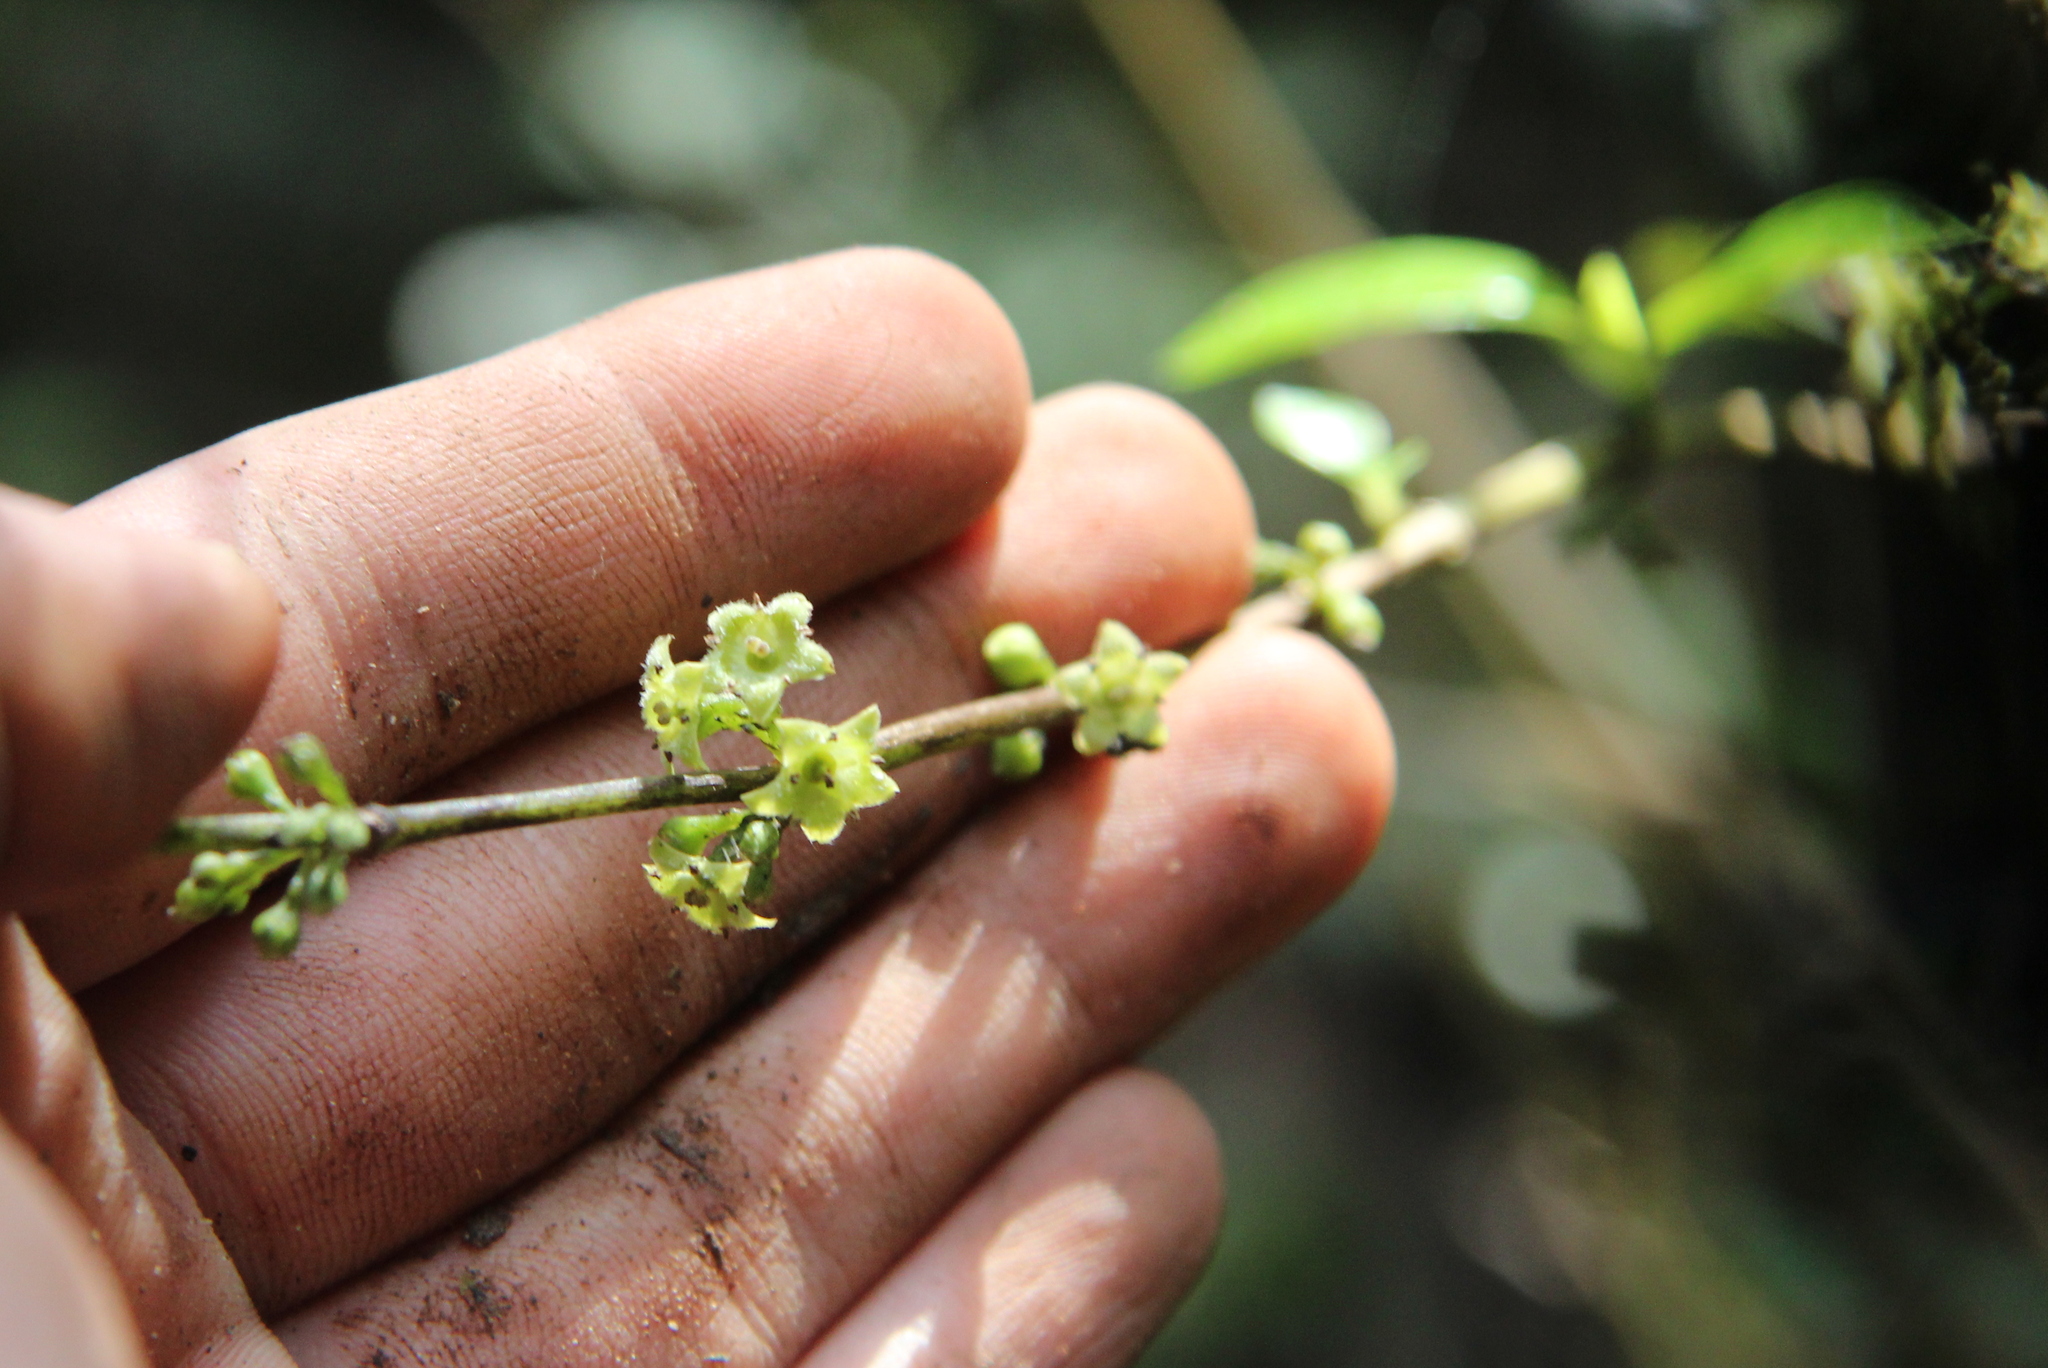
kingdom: Plantae
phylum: Tracheophyta
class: Magnoliopsida
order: Gentianales
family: Loganiaceae
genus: Geniostoma
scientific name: Geniostoma ligustrifolium
